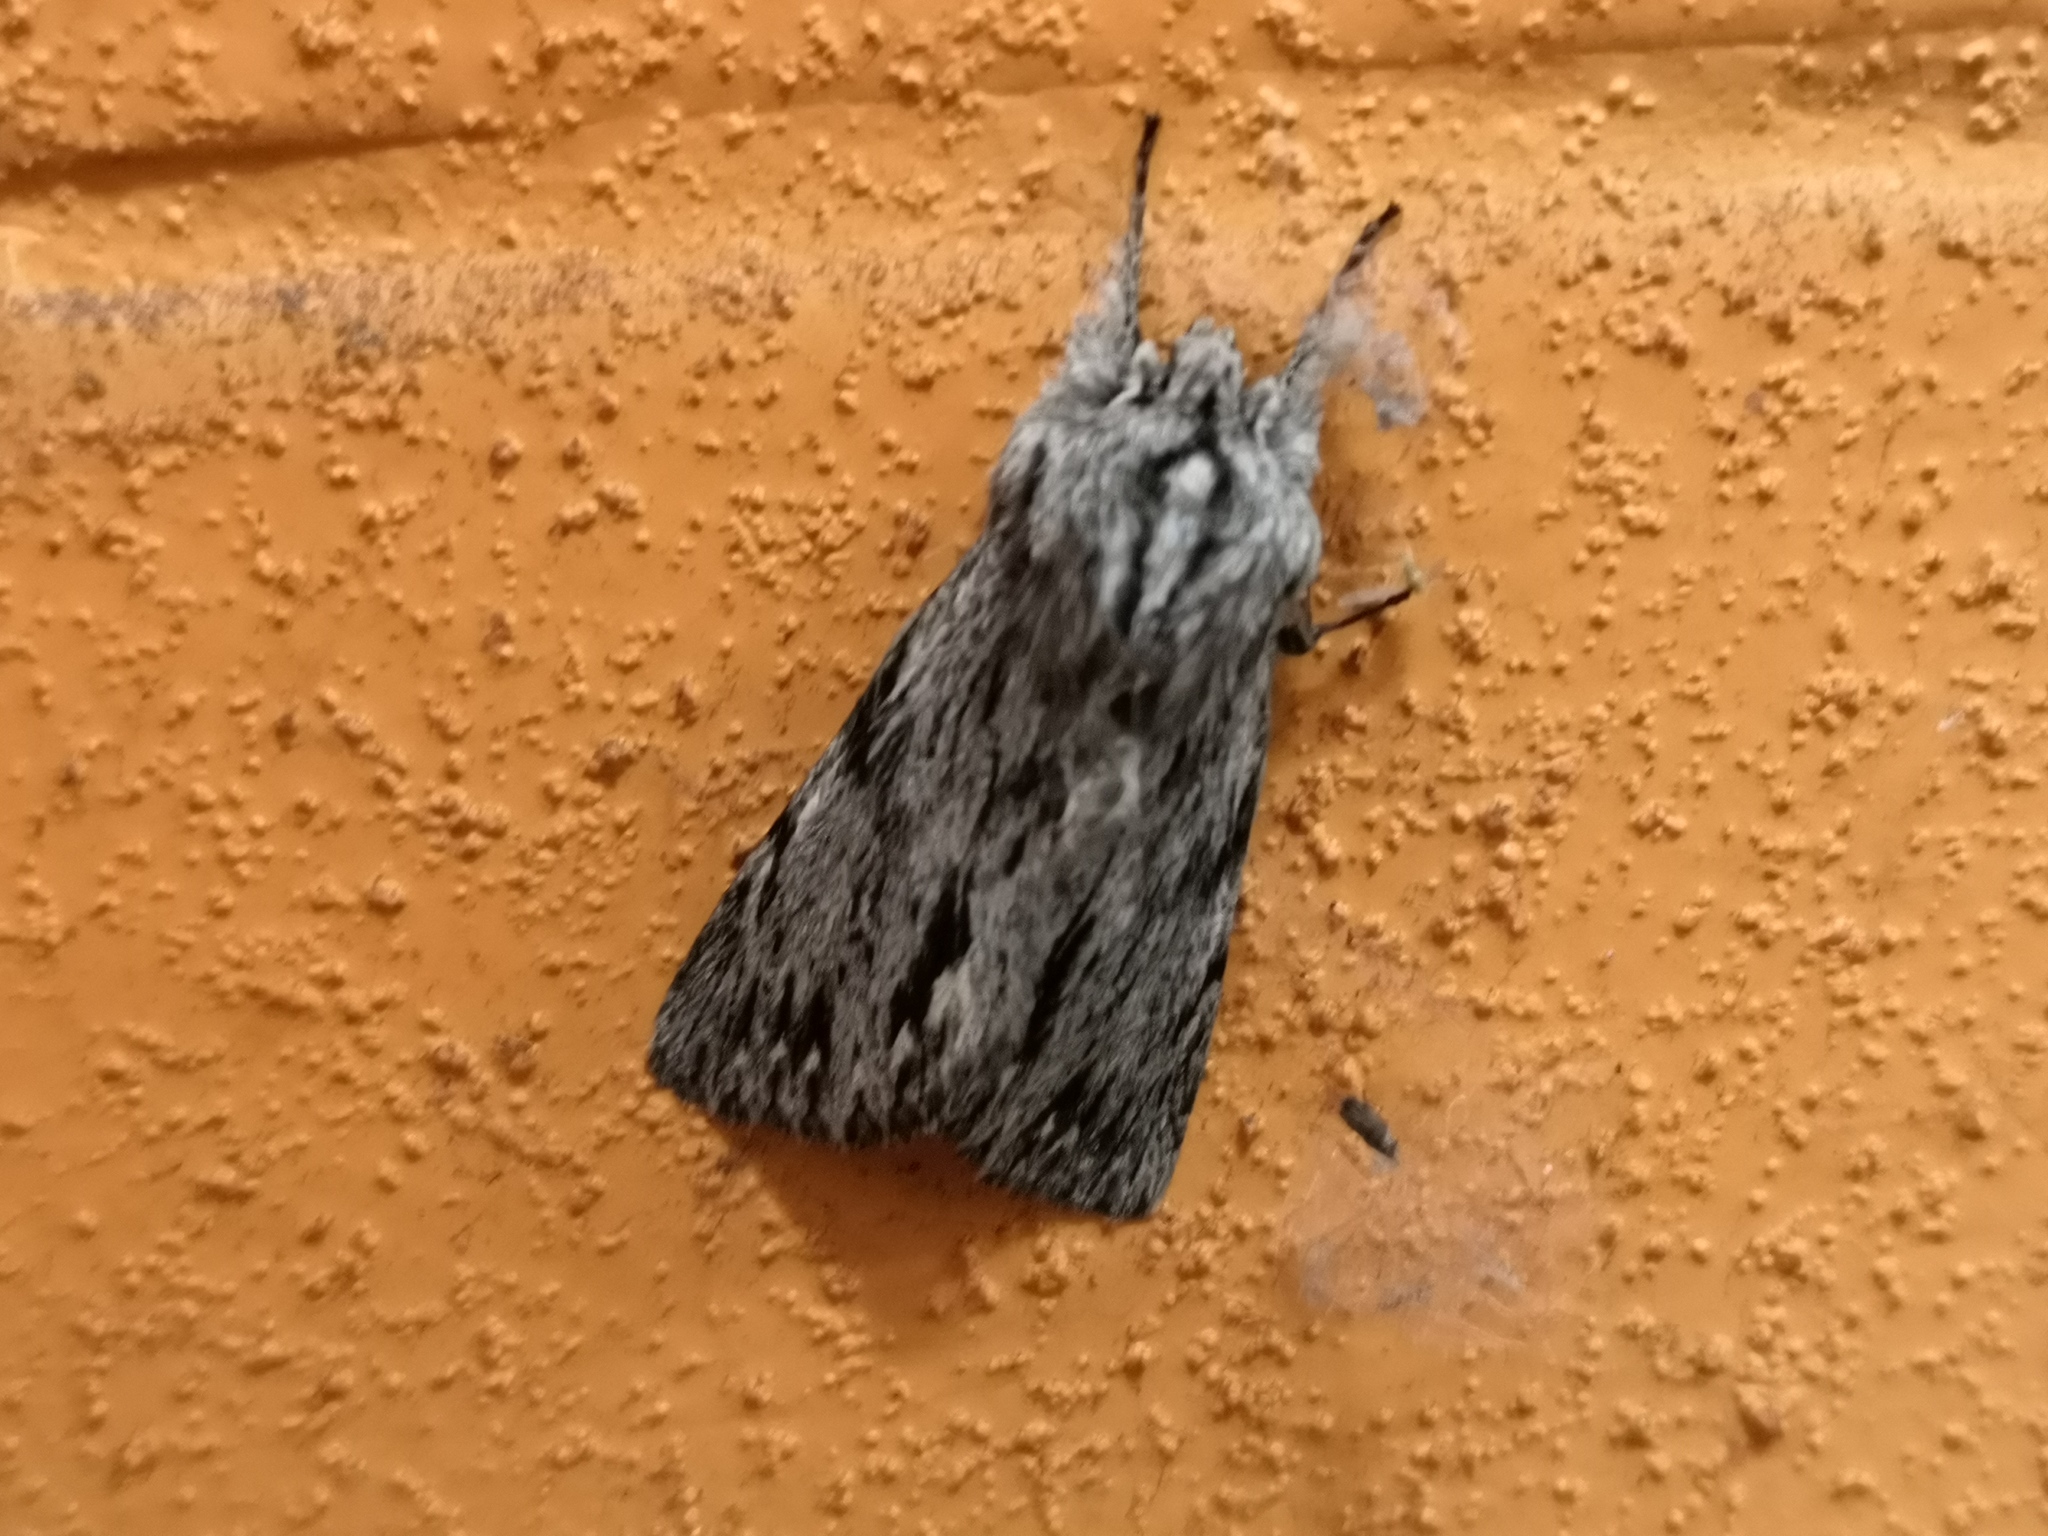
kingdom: Animalia
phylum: Arthropoda
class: Insecta
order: Lepidoptera
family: Noctuidae
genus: Asteroscopus
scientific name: Asteroscopus sphinx
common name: The sprawler
